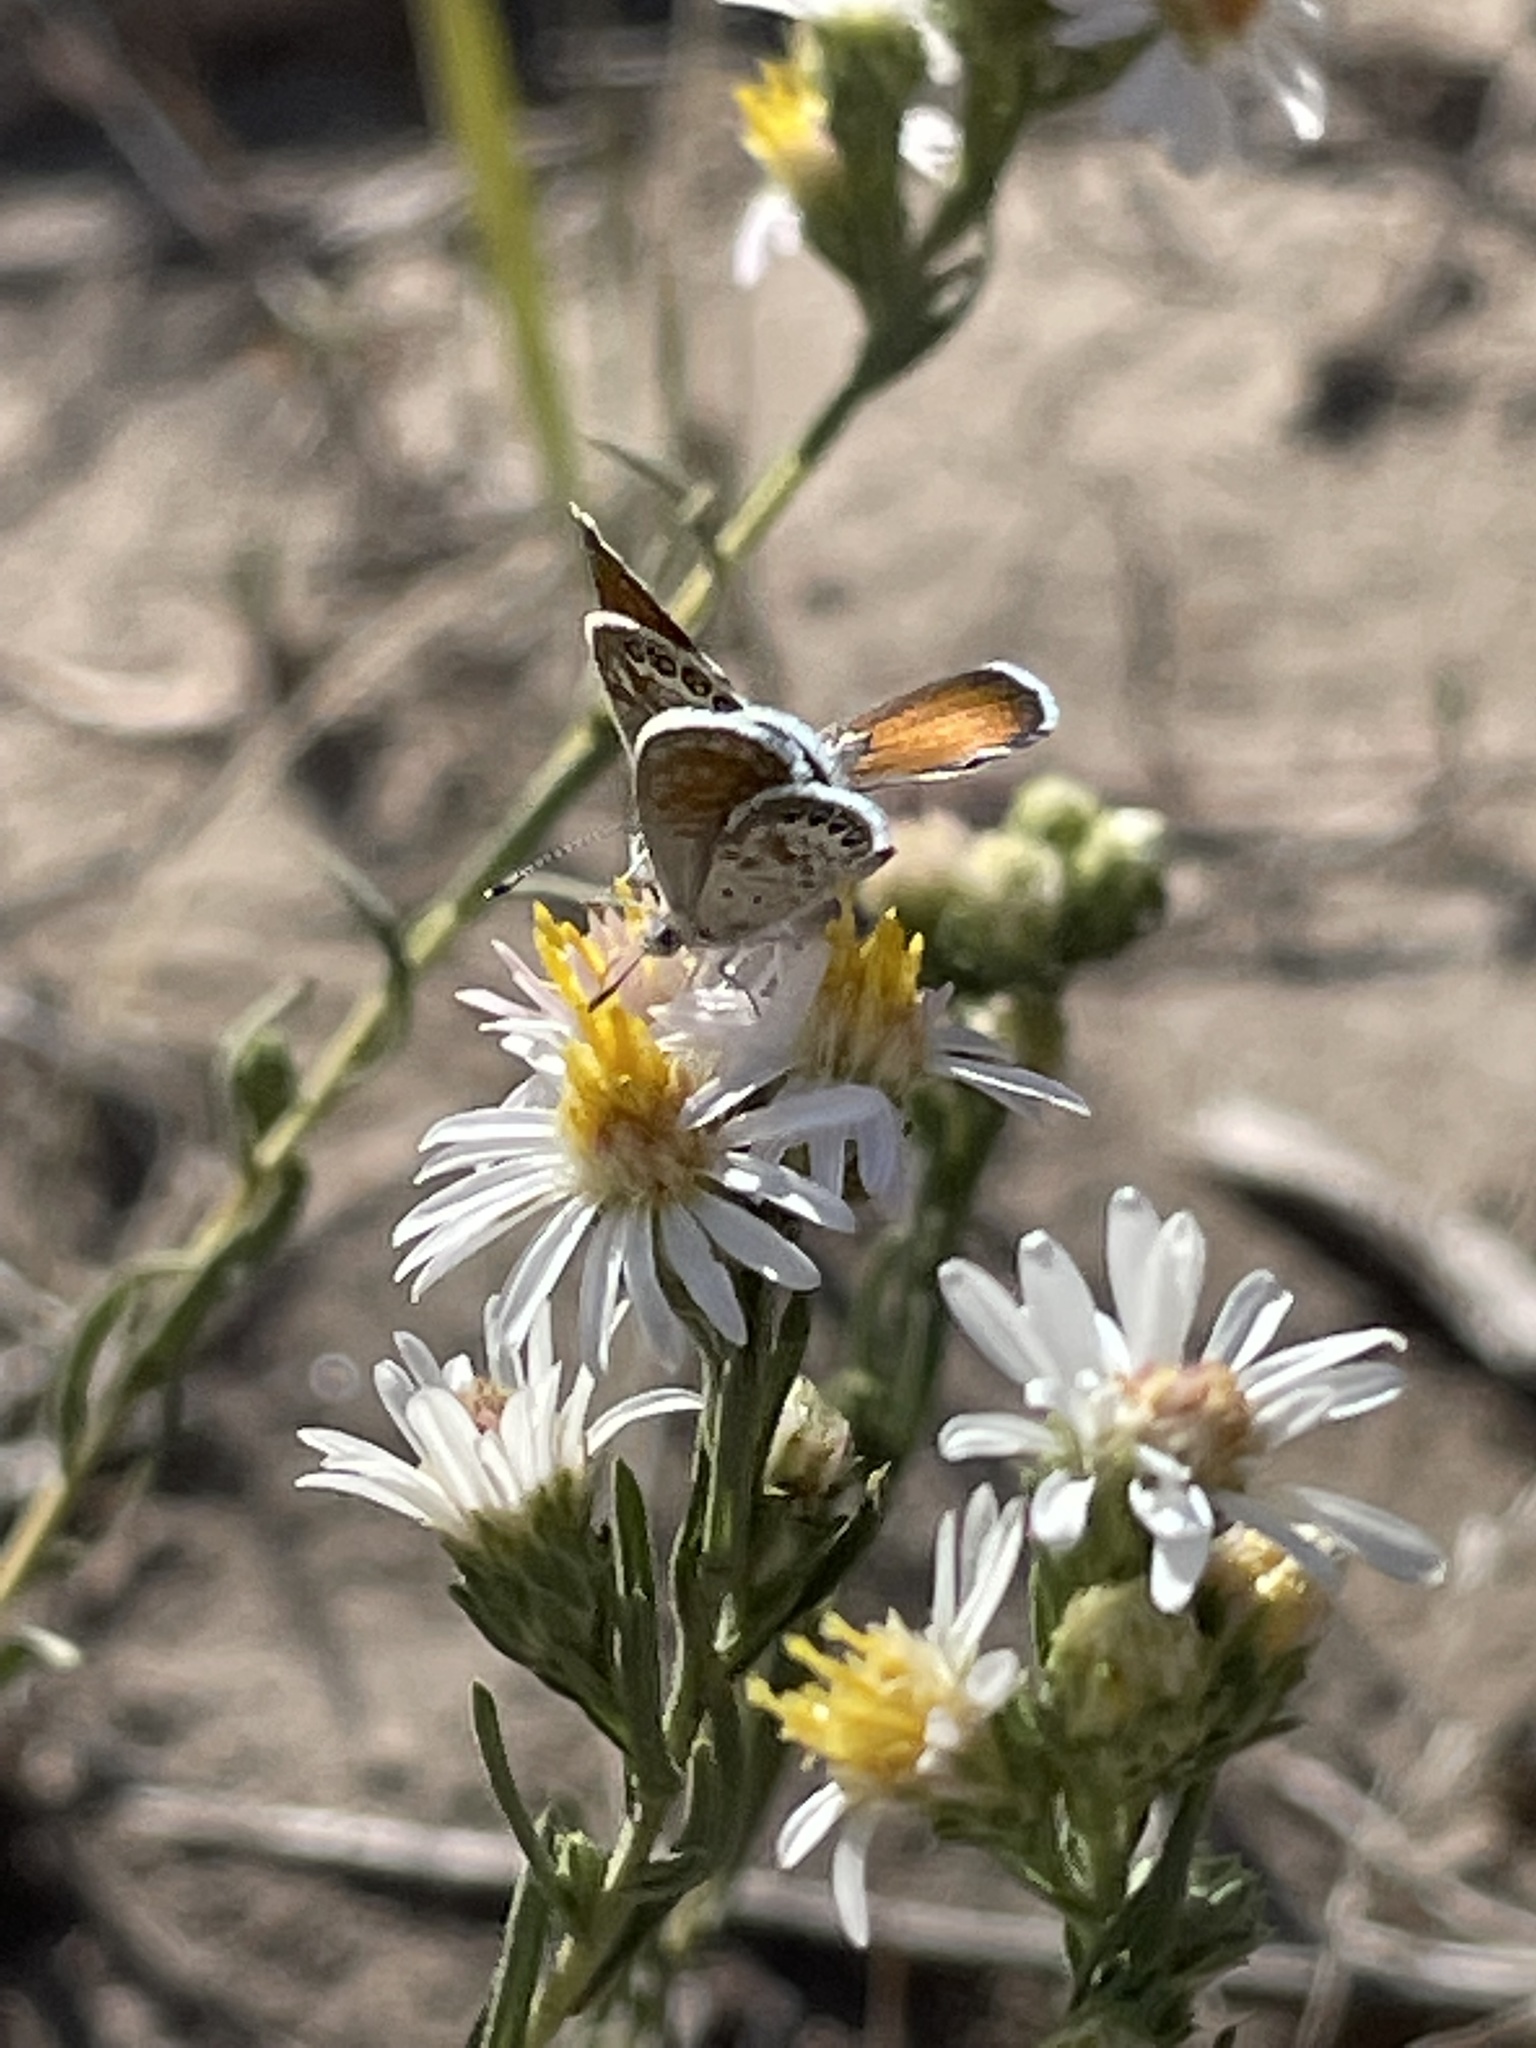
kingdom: Animalia
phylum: Arthropoda
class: Insecta
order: Lepidoptera
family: Lycaenidae
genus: Brephidium
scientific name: Brephidium exilis
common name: Pygmy blue
